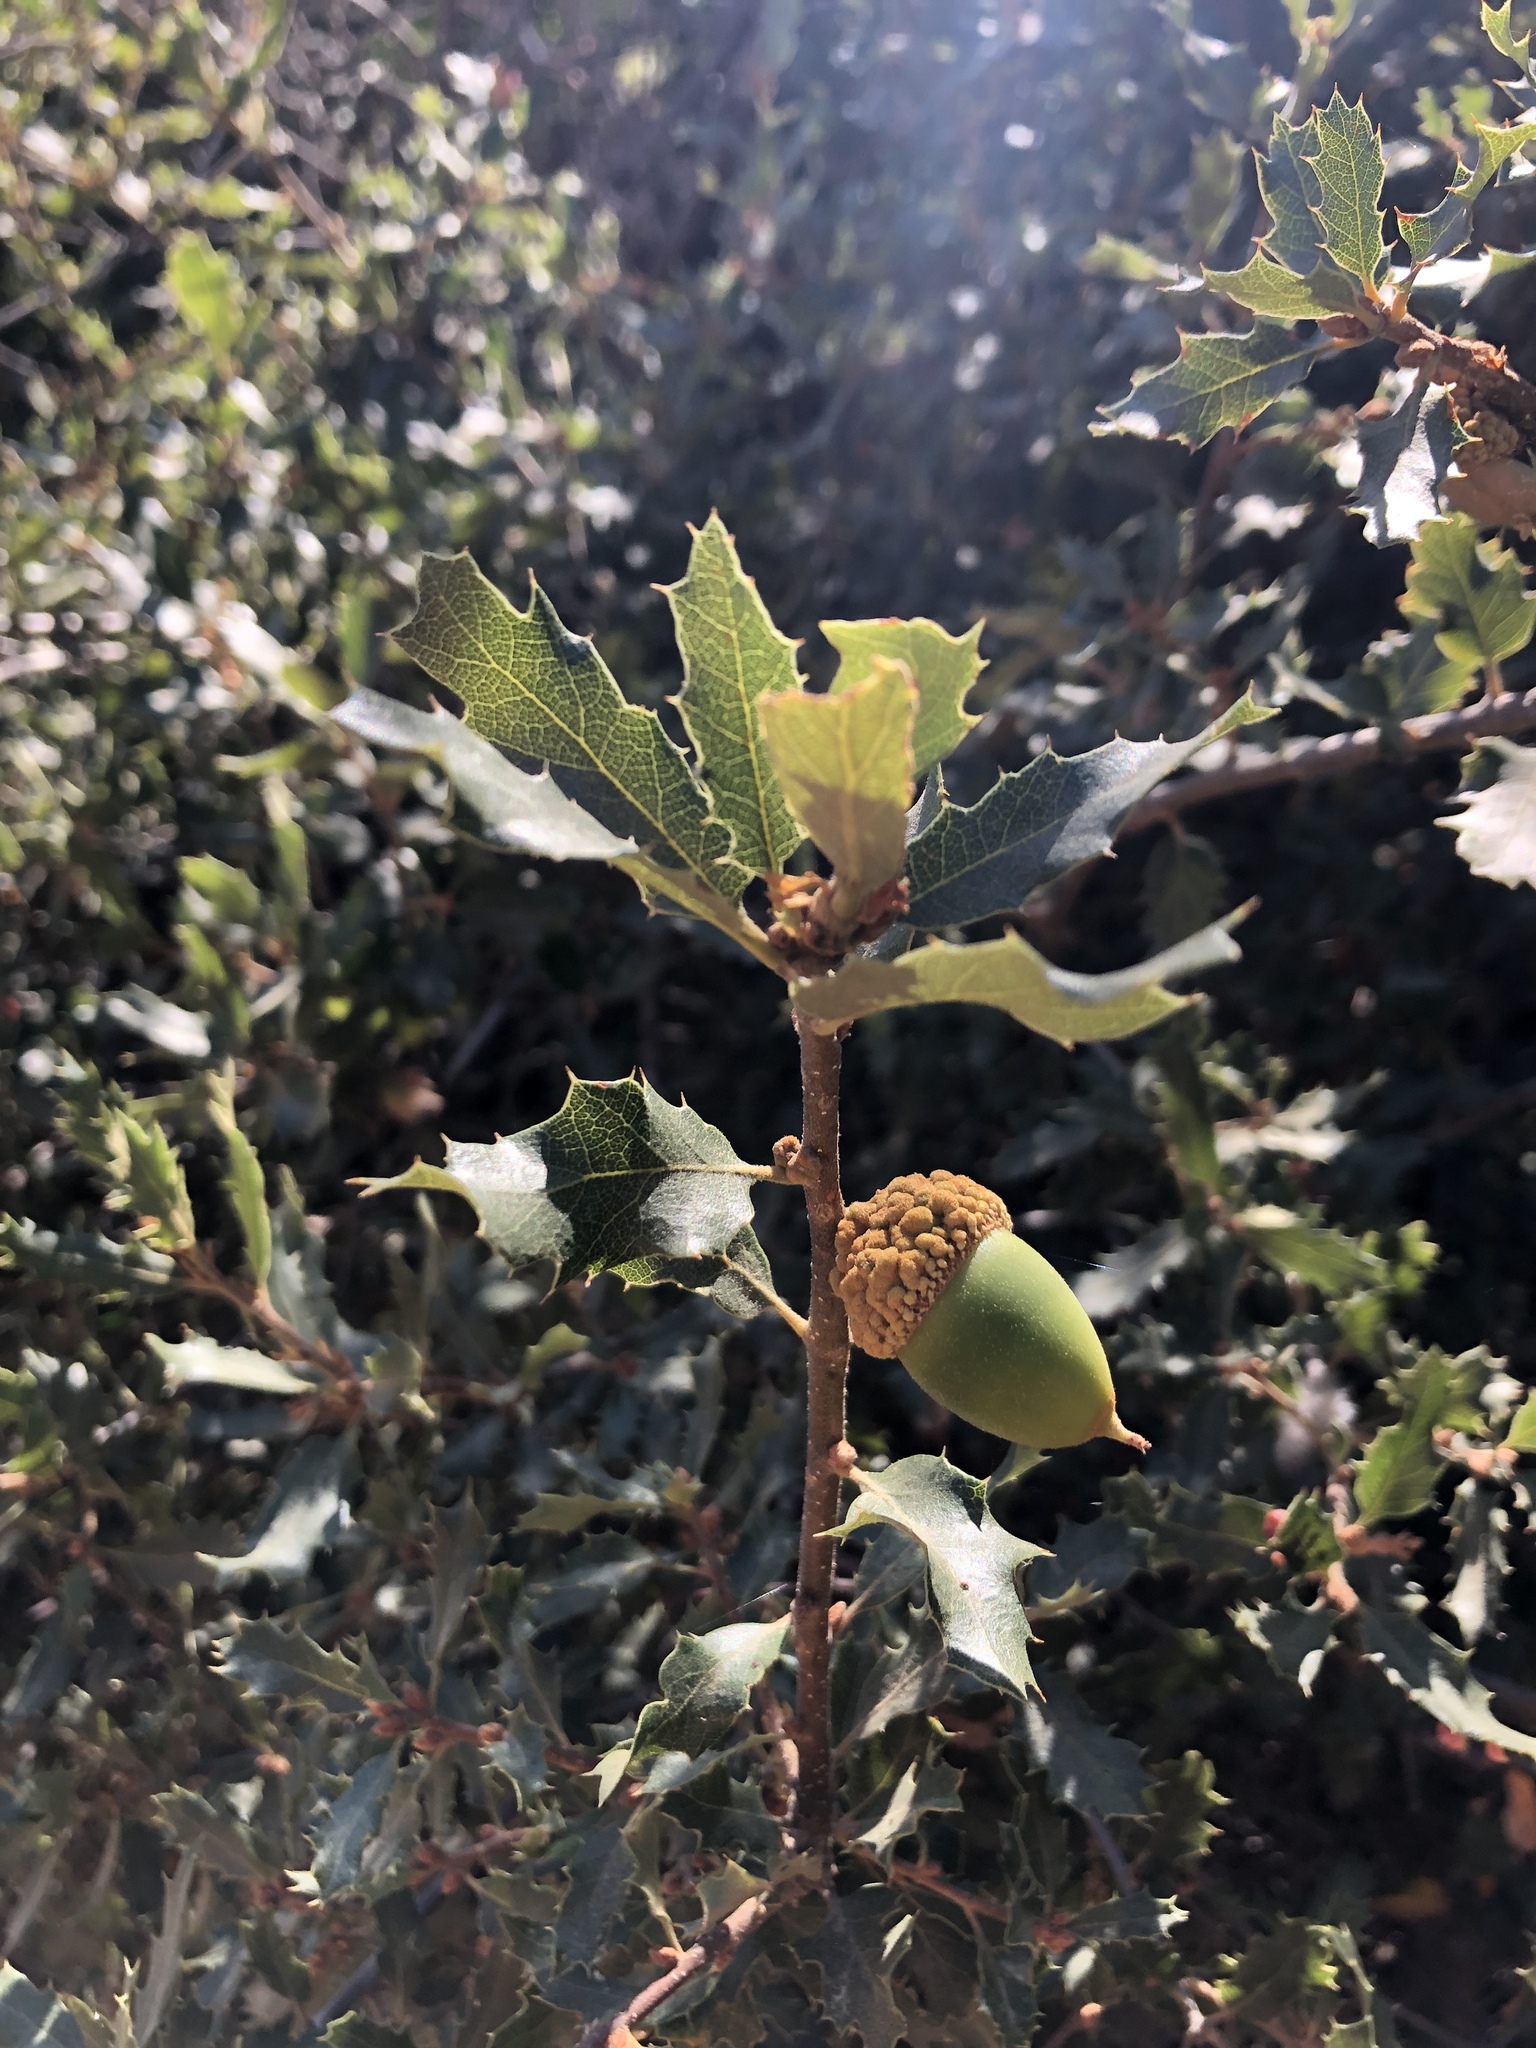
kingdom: Plantae
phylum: Tracheophyta
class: Magnoliopsida
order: Fagales
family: Fagaceae
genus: Quercus
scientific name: Quercus berberidifolia
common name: California scrub oak
